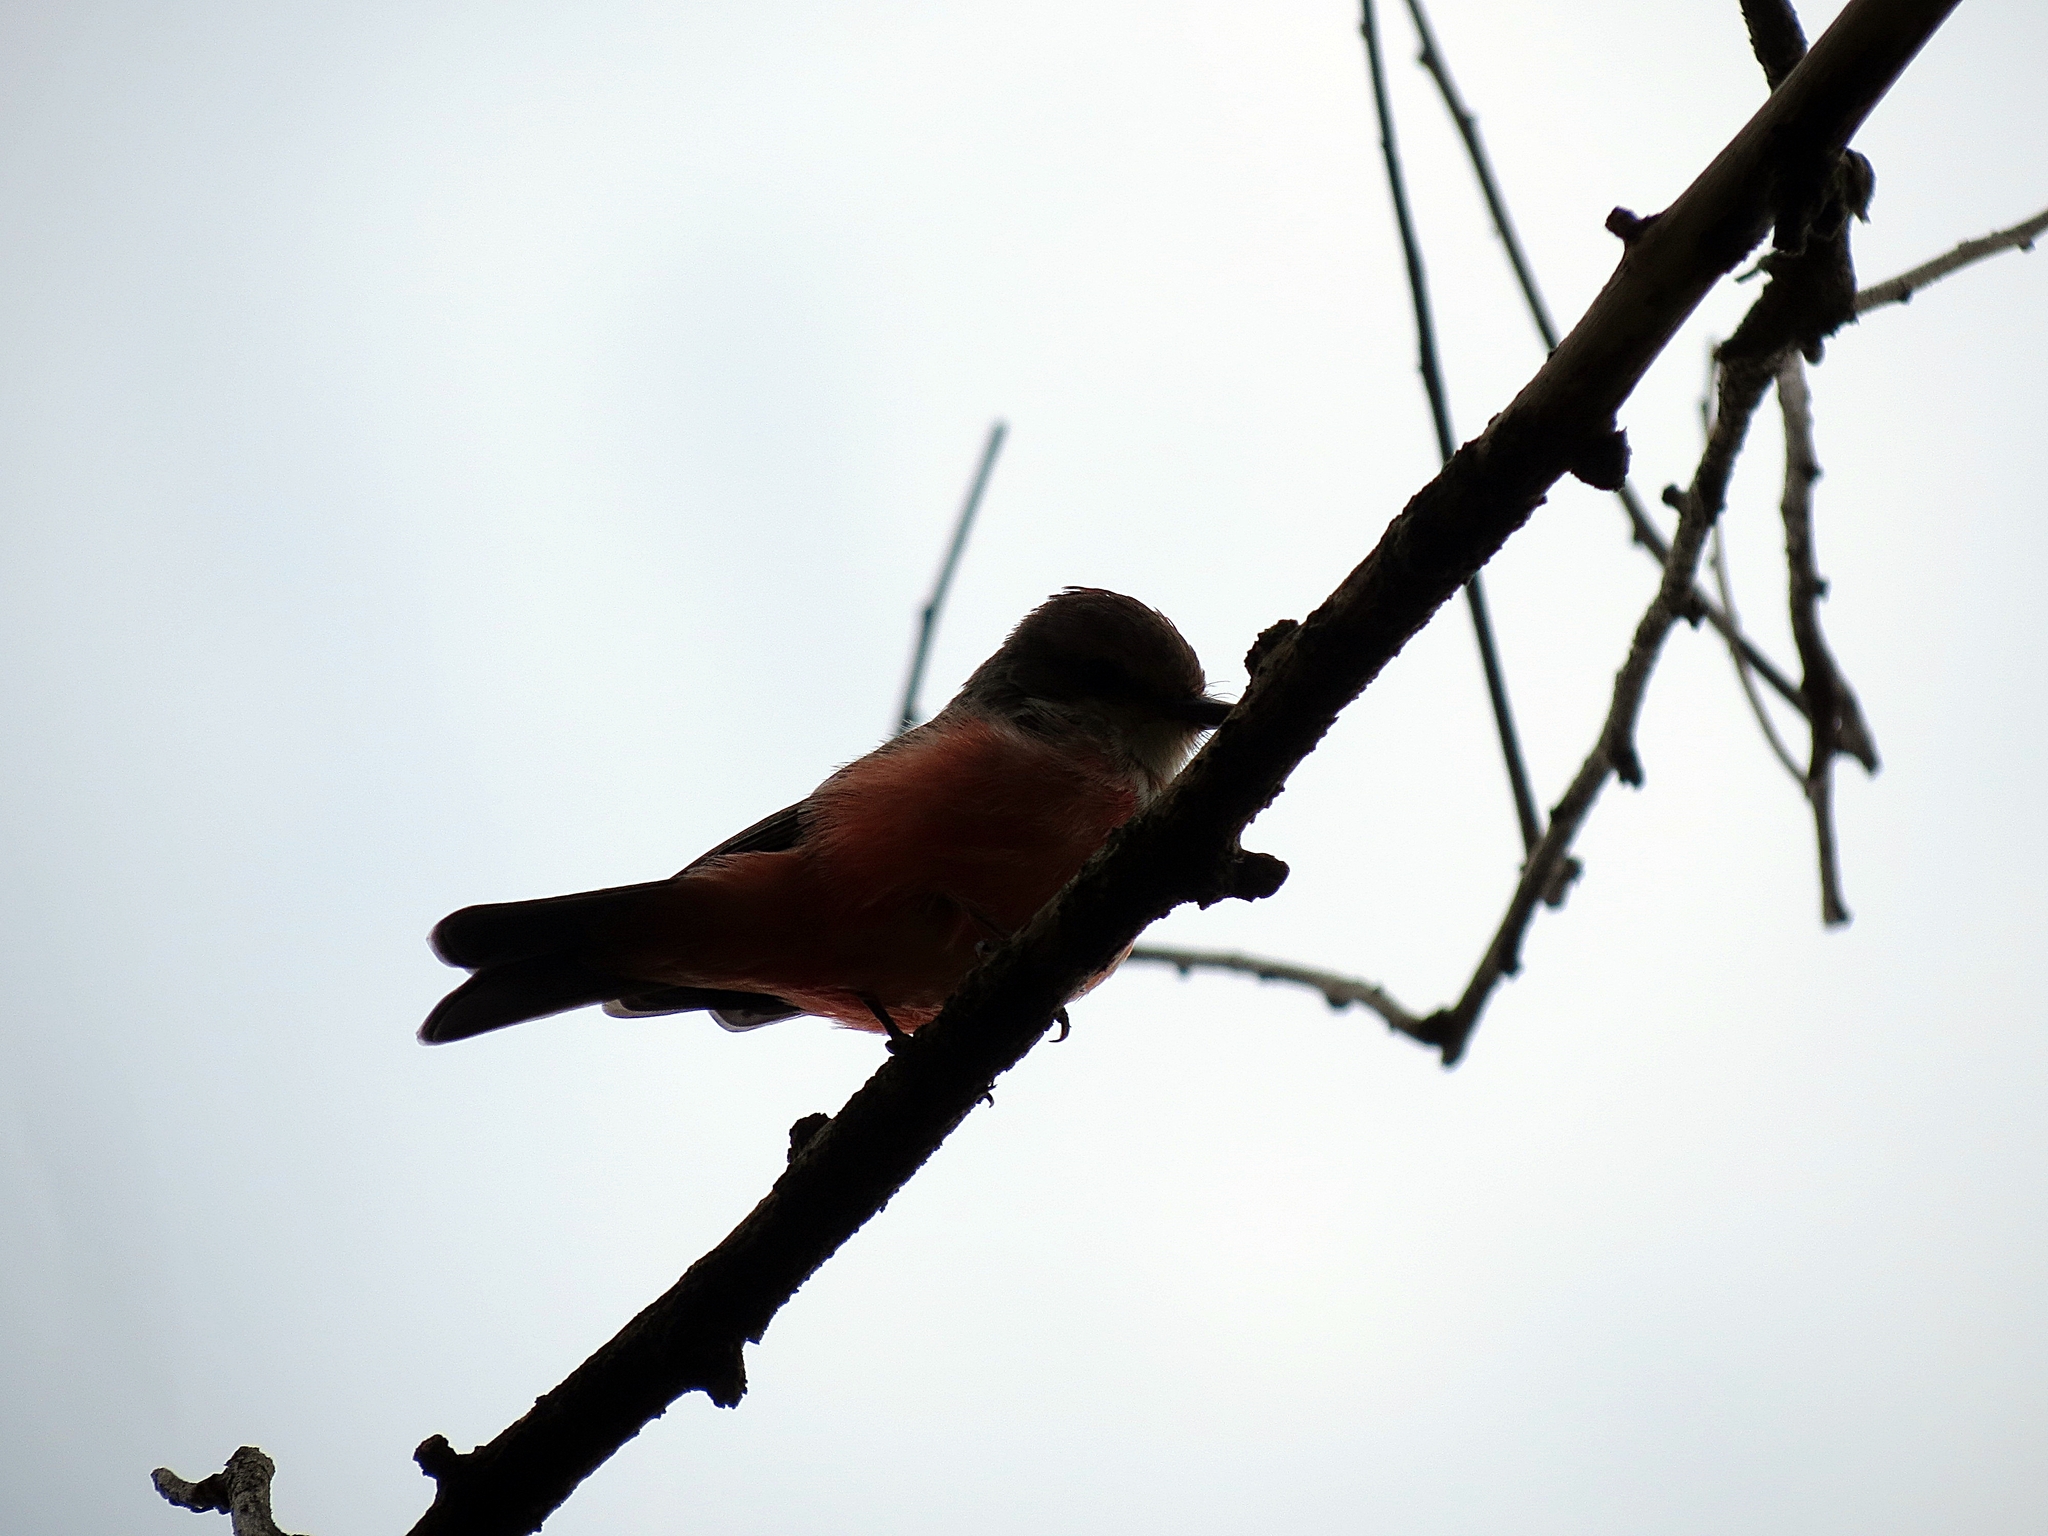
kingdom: Animalia
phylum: Chordata
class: Aves
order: Passeriformes
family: Tyrannidae
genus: Pyrocephalus
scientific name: Pyrocephalus rubinus
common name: Vermilion flycatcher
